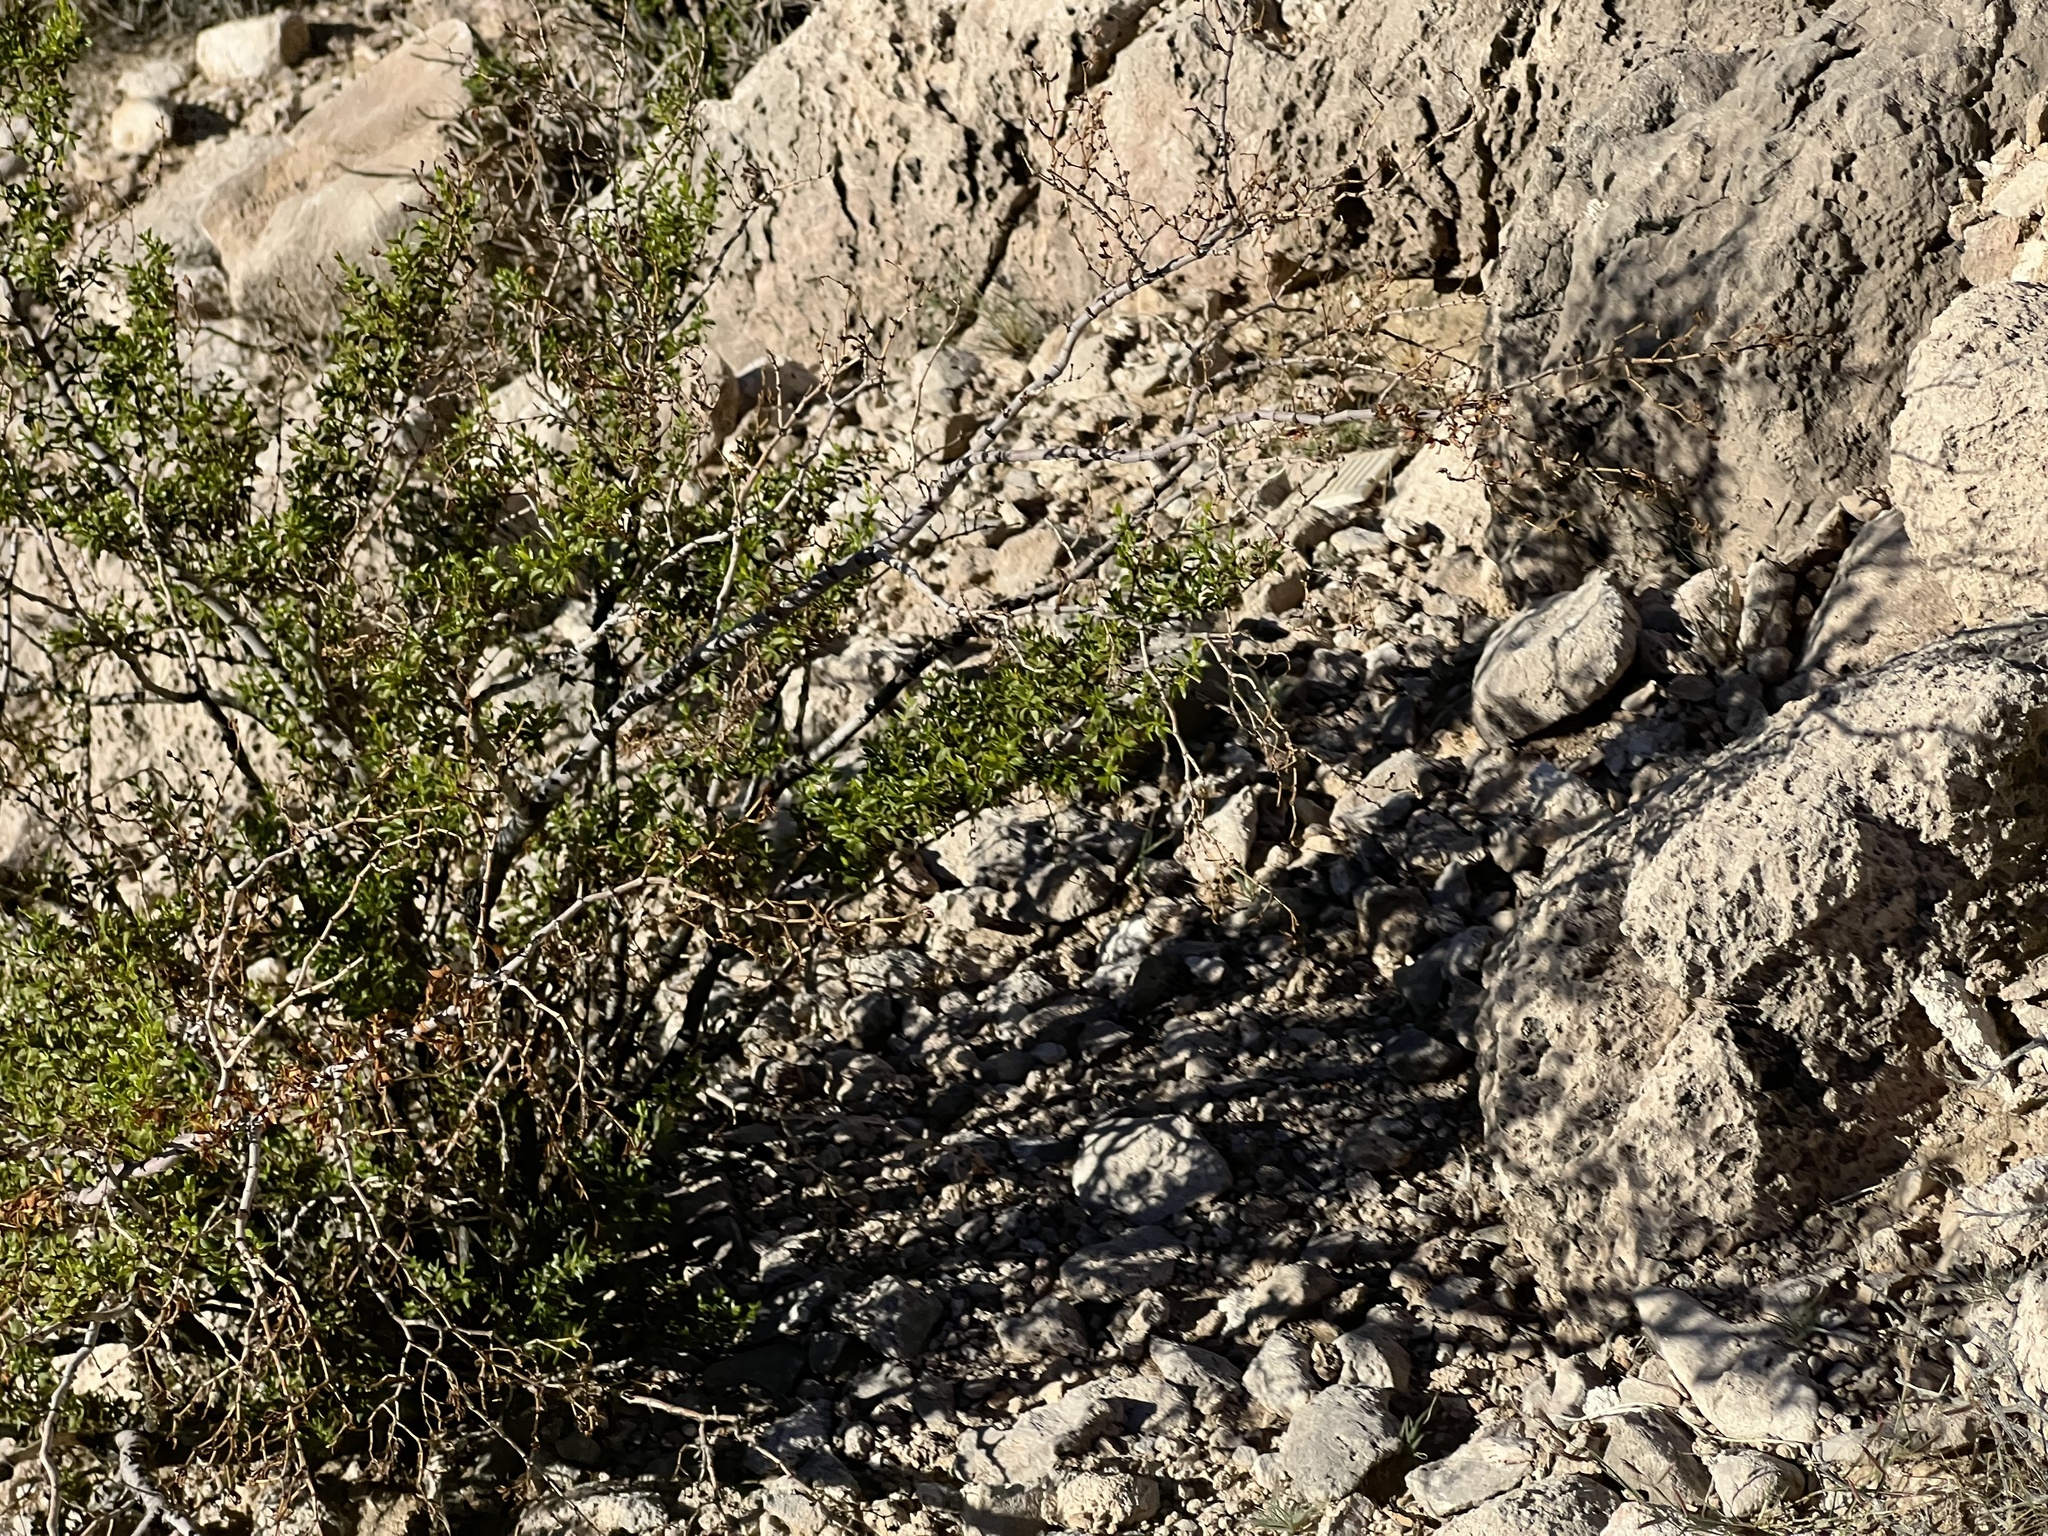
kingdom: Plantae
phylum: Tracheophyta
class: Magnoliopsida
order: Zygophyllales
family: Zygophyllaceae
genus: Larrea
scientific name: Larrea tridentata
